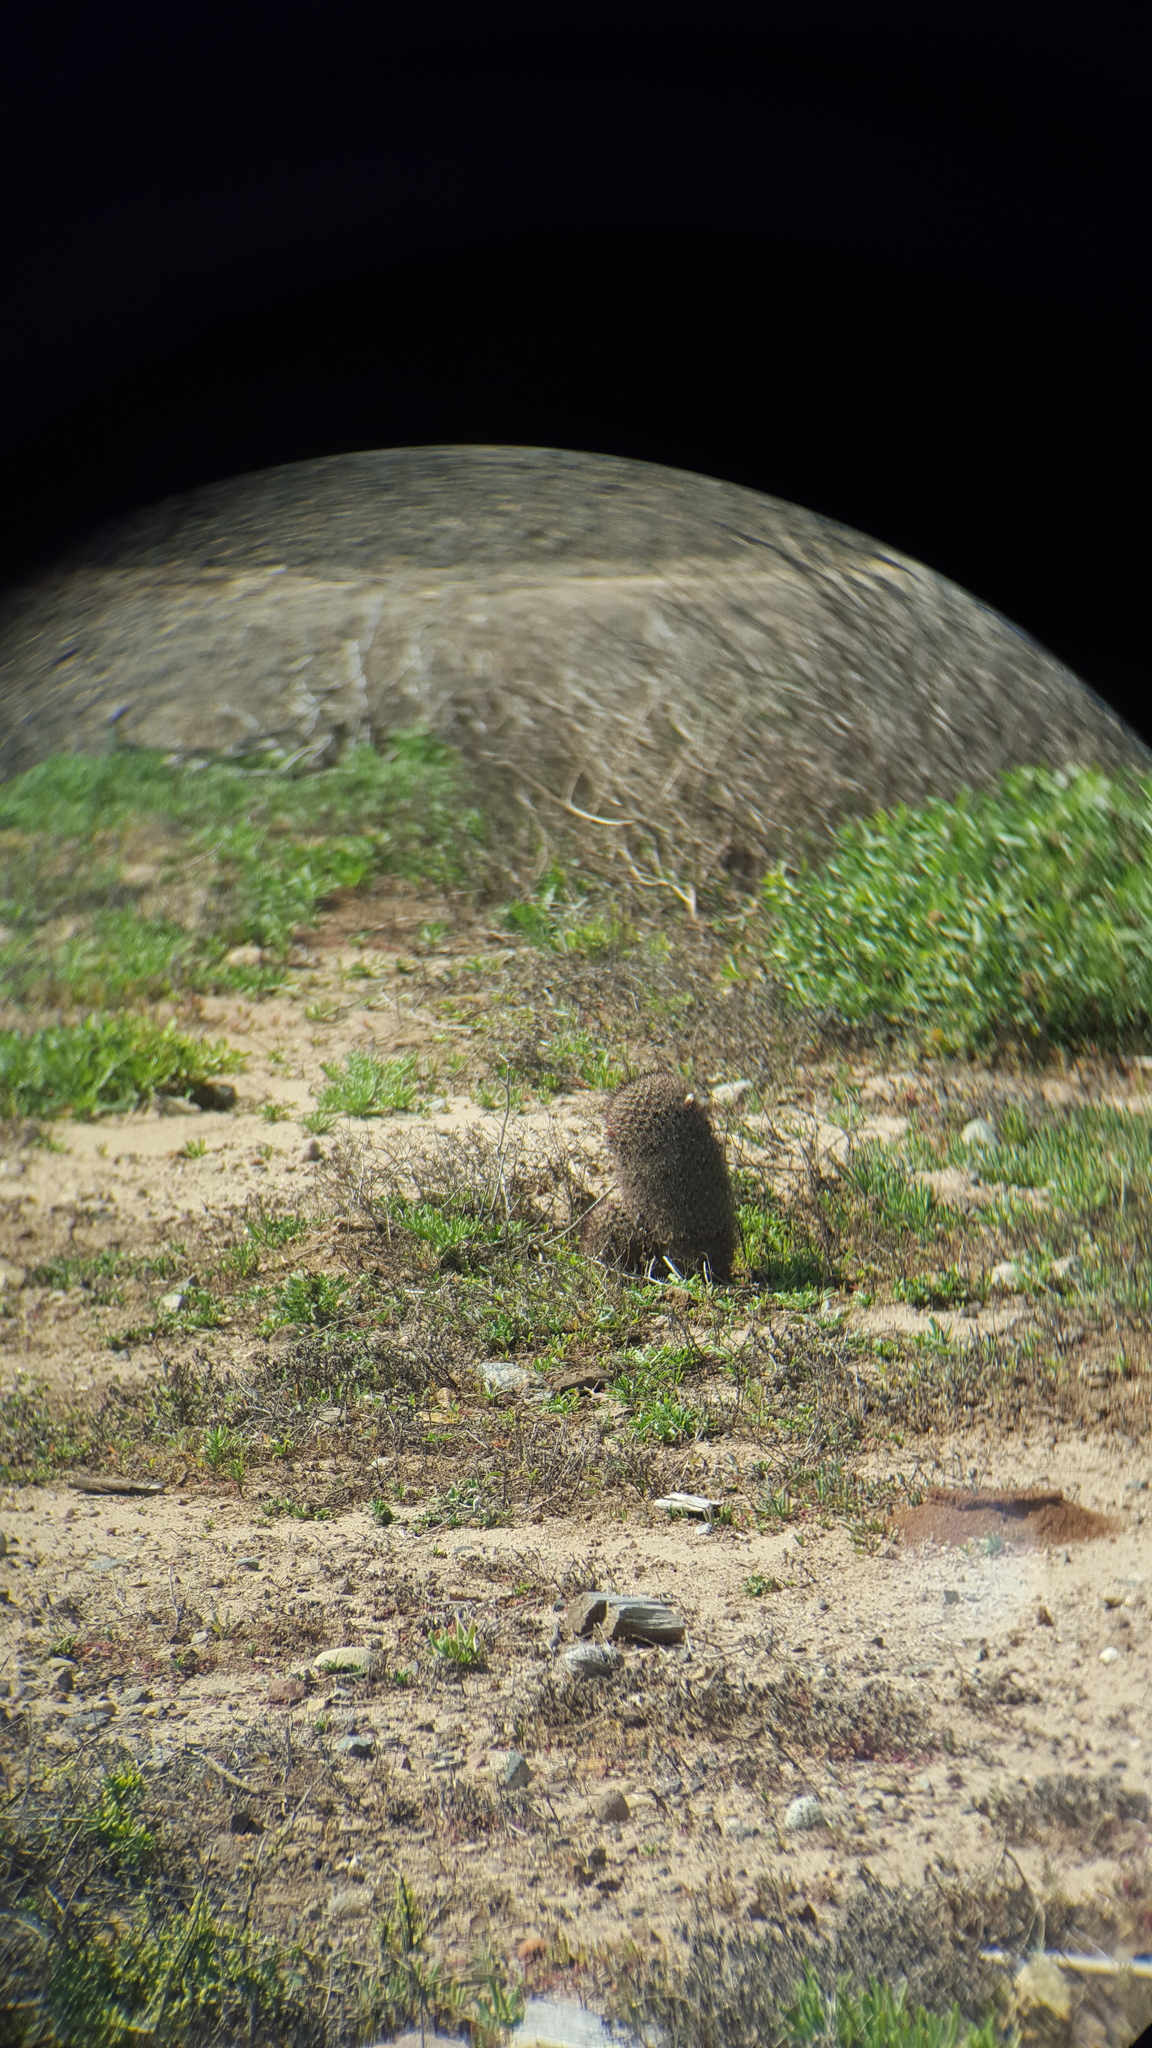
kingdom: Plantae
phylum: Tracheophyta
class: Magnoliopsida
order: Caryophyllales
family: Cactaceae
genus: Cochemiea
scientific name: Cochemiea dioica
